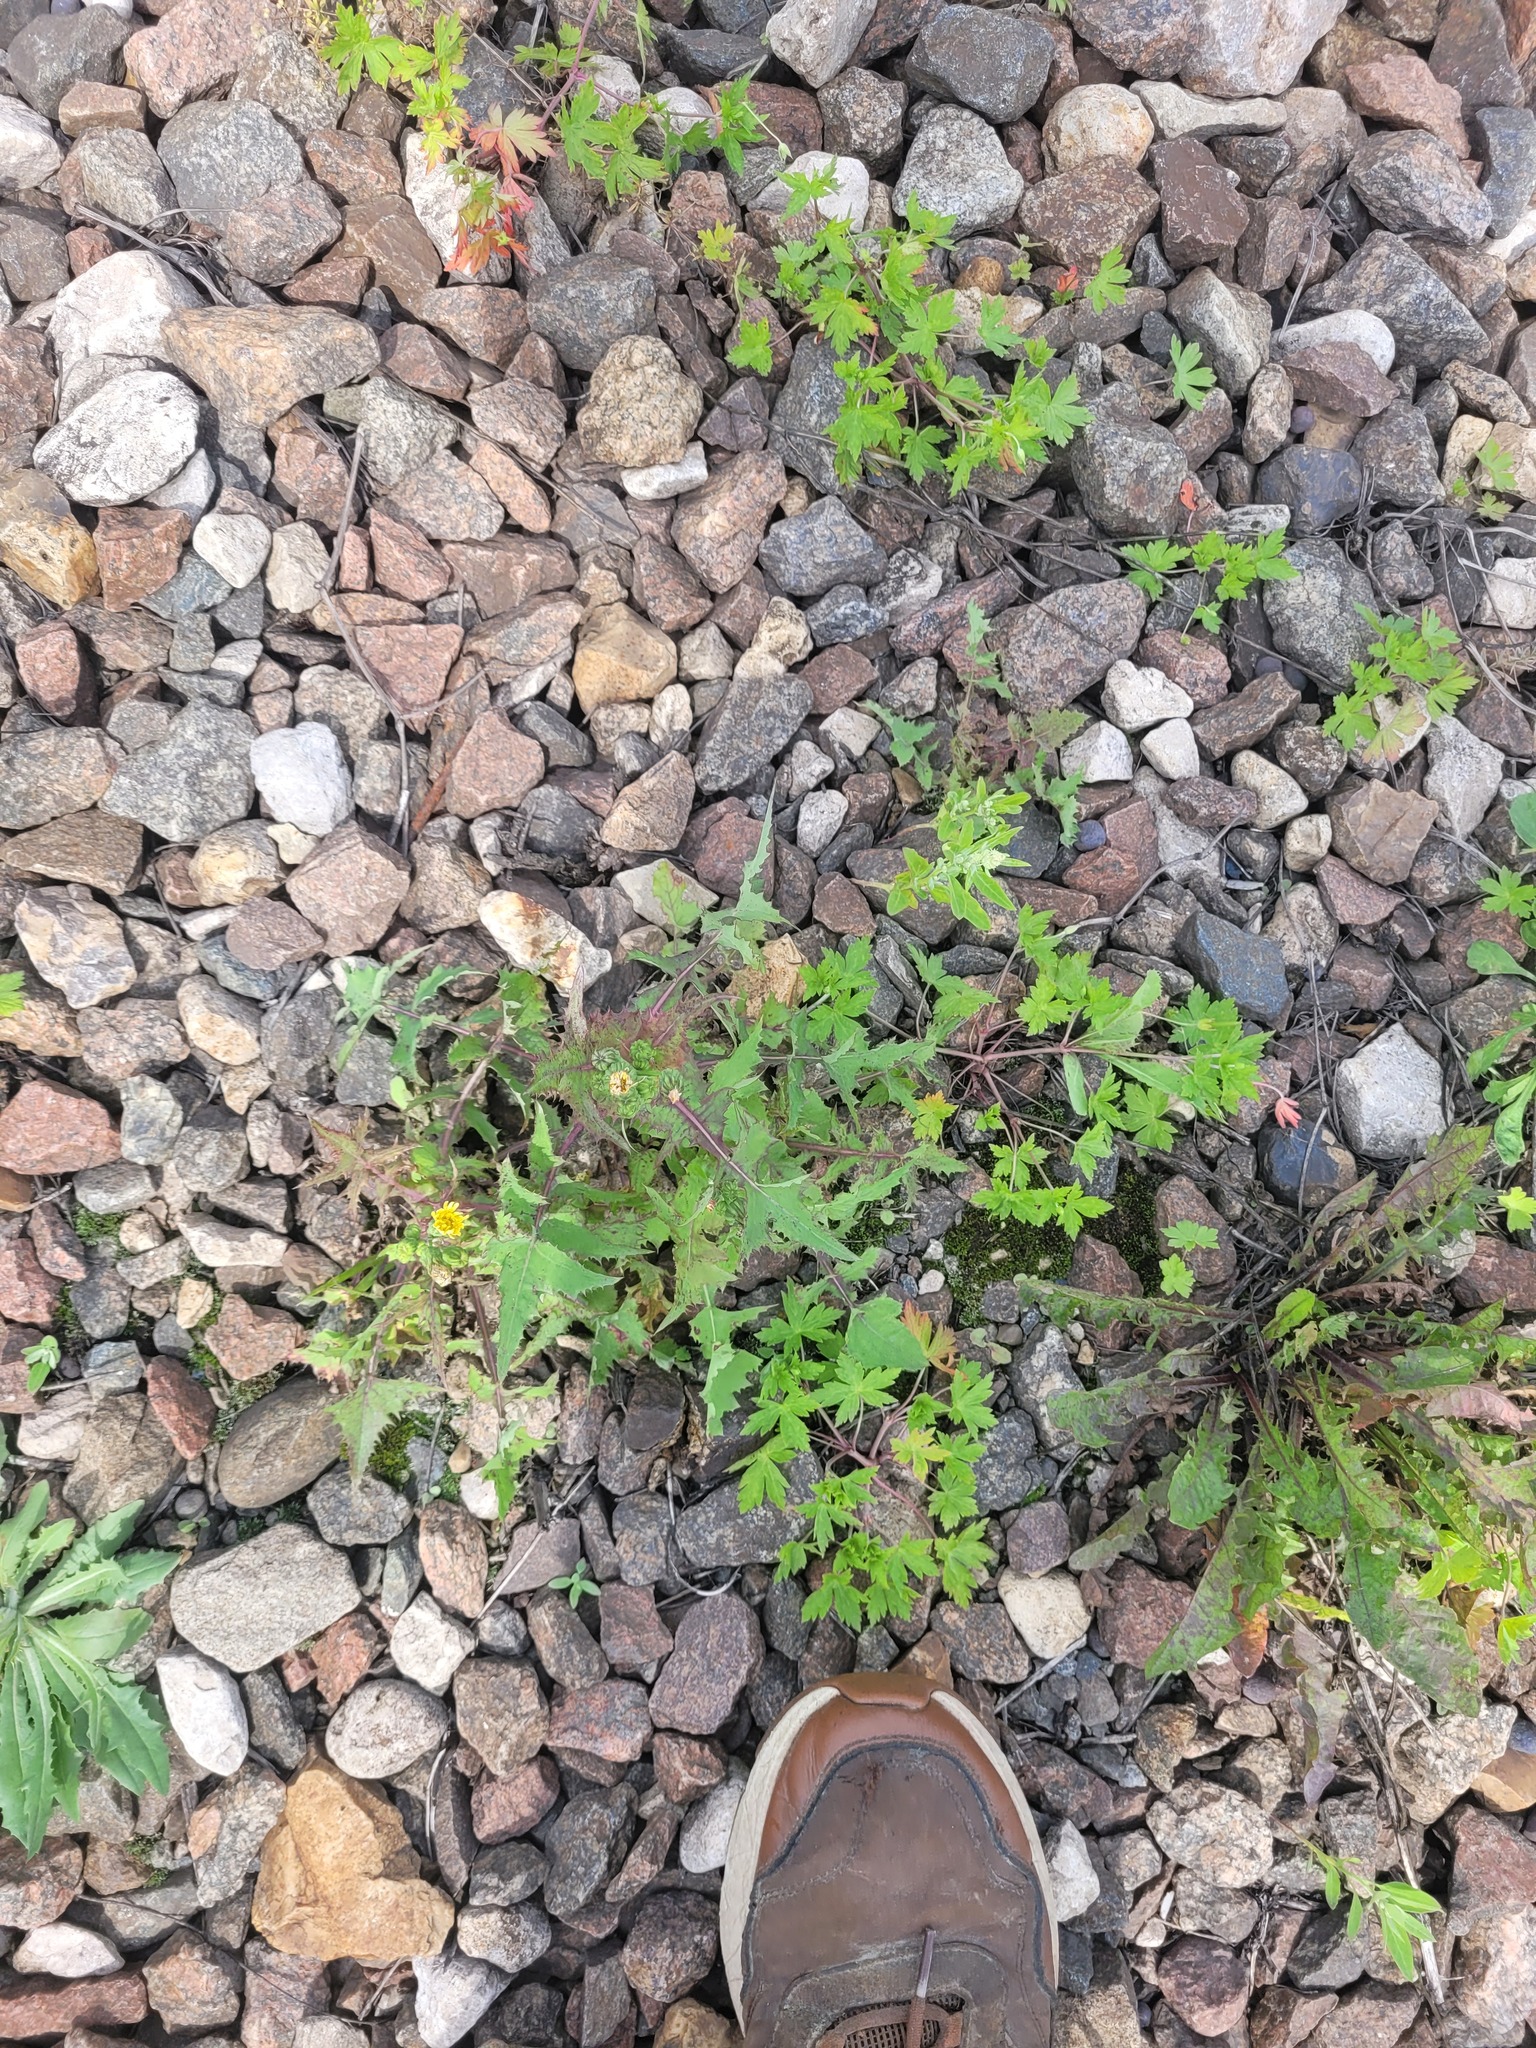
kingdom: Plantae
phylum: Tracheophyta
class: Magnoliopsida
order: Asterales
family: Asteraceae
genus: Sonchus
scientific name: Sonchus oleraceus
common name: Common sowthistle
